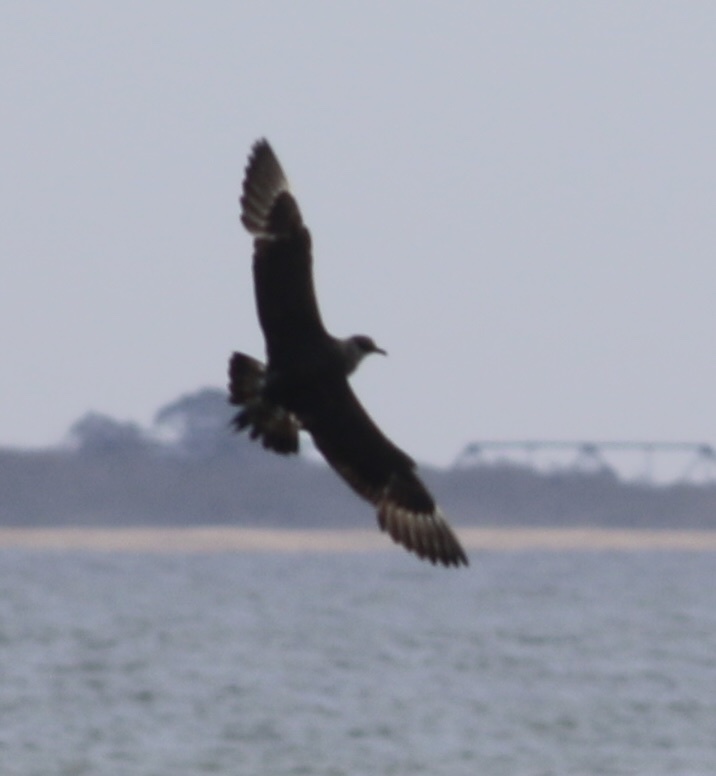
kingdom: Animalia
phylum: Chordata
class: Aves
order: Charadriiformes
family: Stercorariidae
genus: Stercorarius
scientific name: Stercorarius parasiticus
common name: Parasitic jaeger
